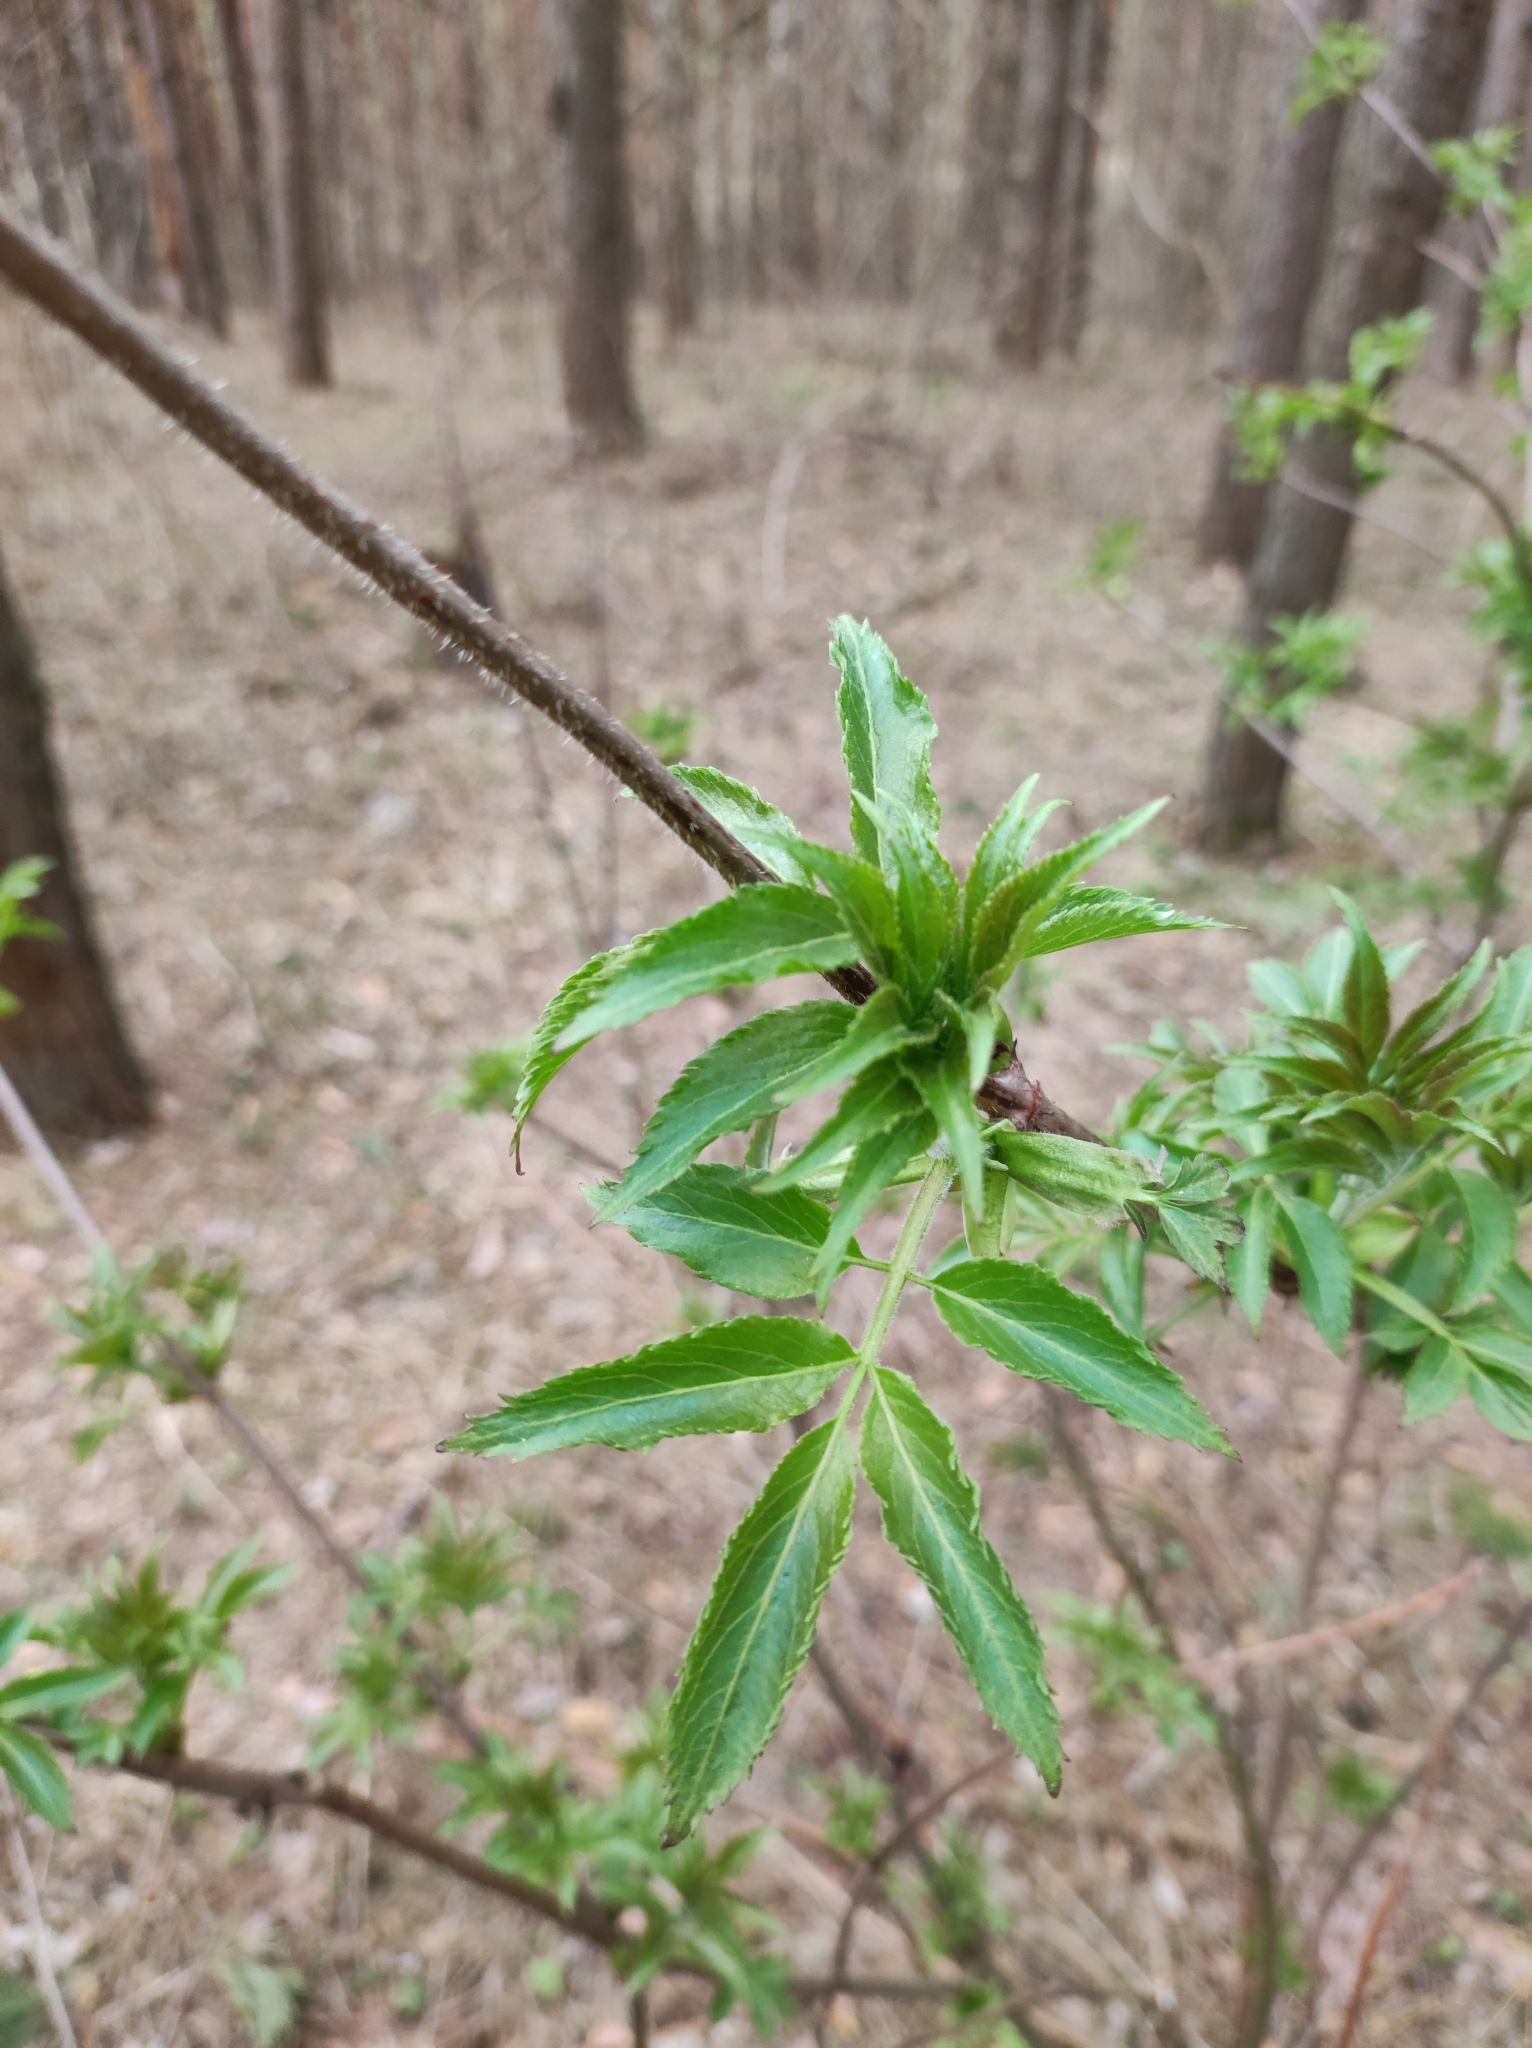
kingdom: Plantae
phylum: Tracheophyta
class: Magnoliopsida
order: Dipsacales
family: Viburnaceae
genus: Sambucus
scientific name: Sambucus racemosa
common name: Red-berried elder
